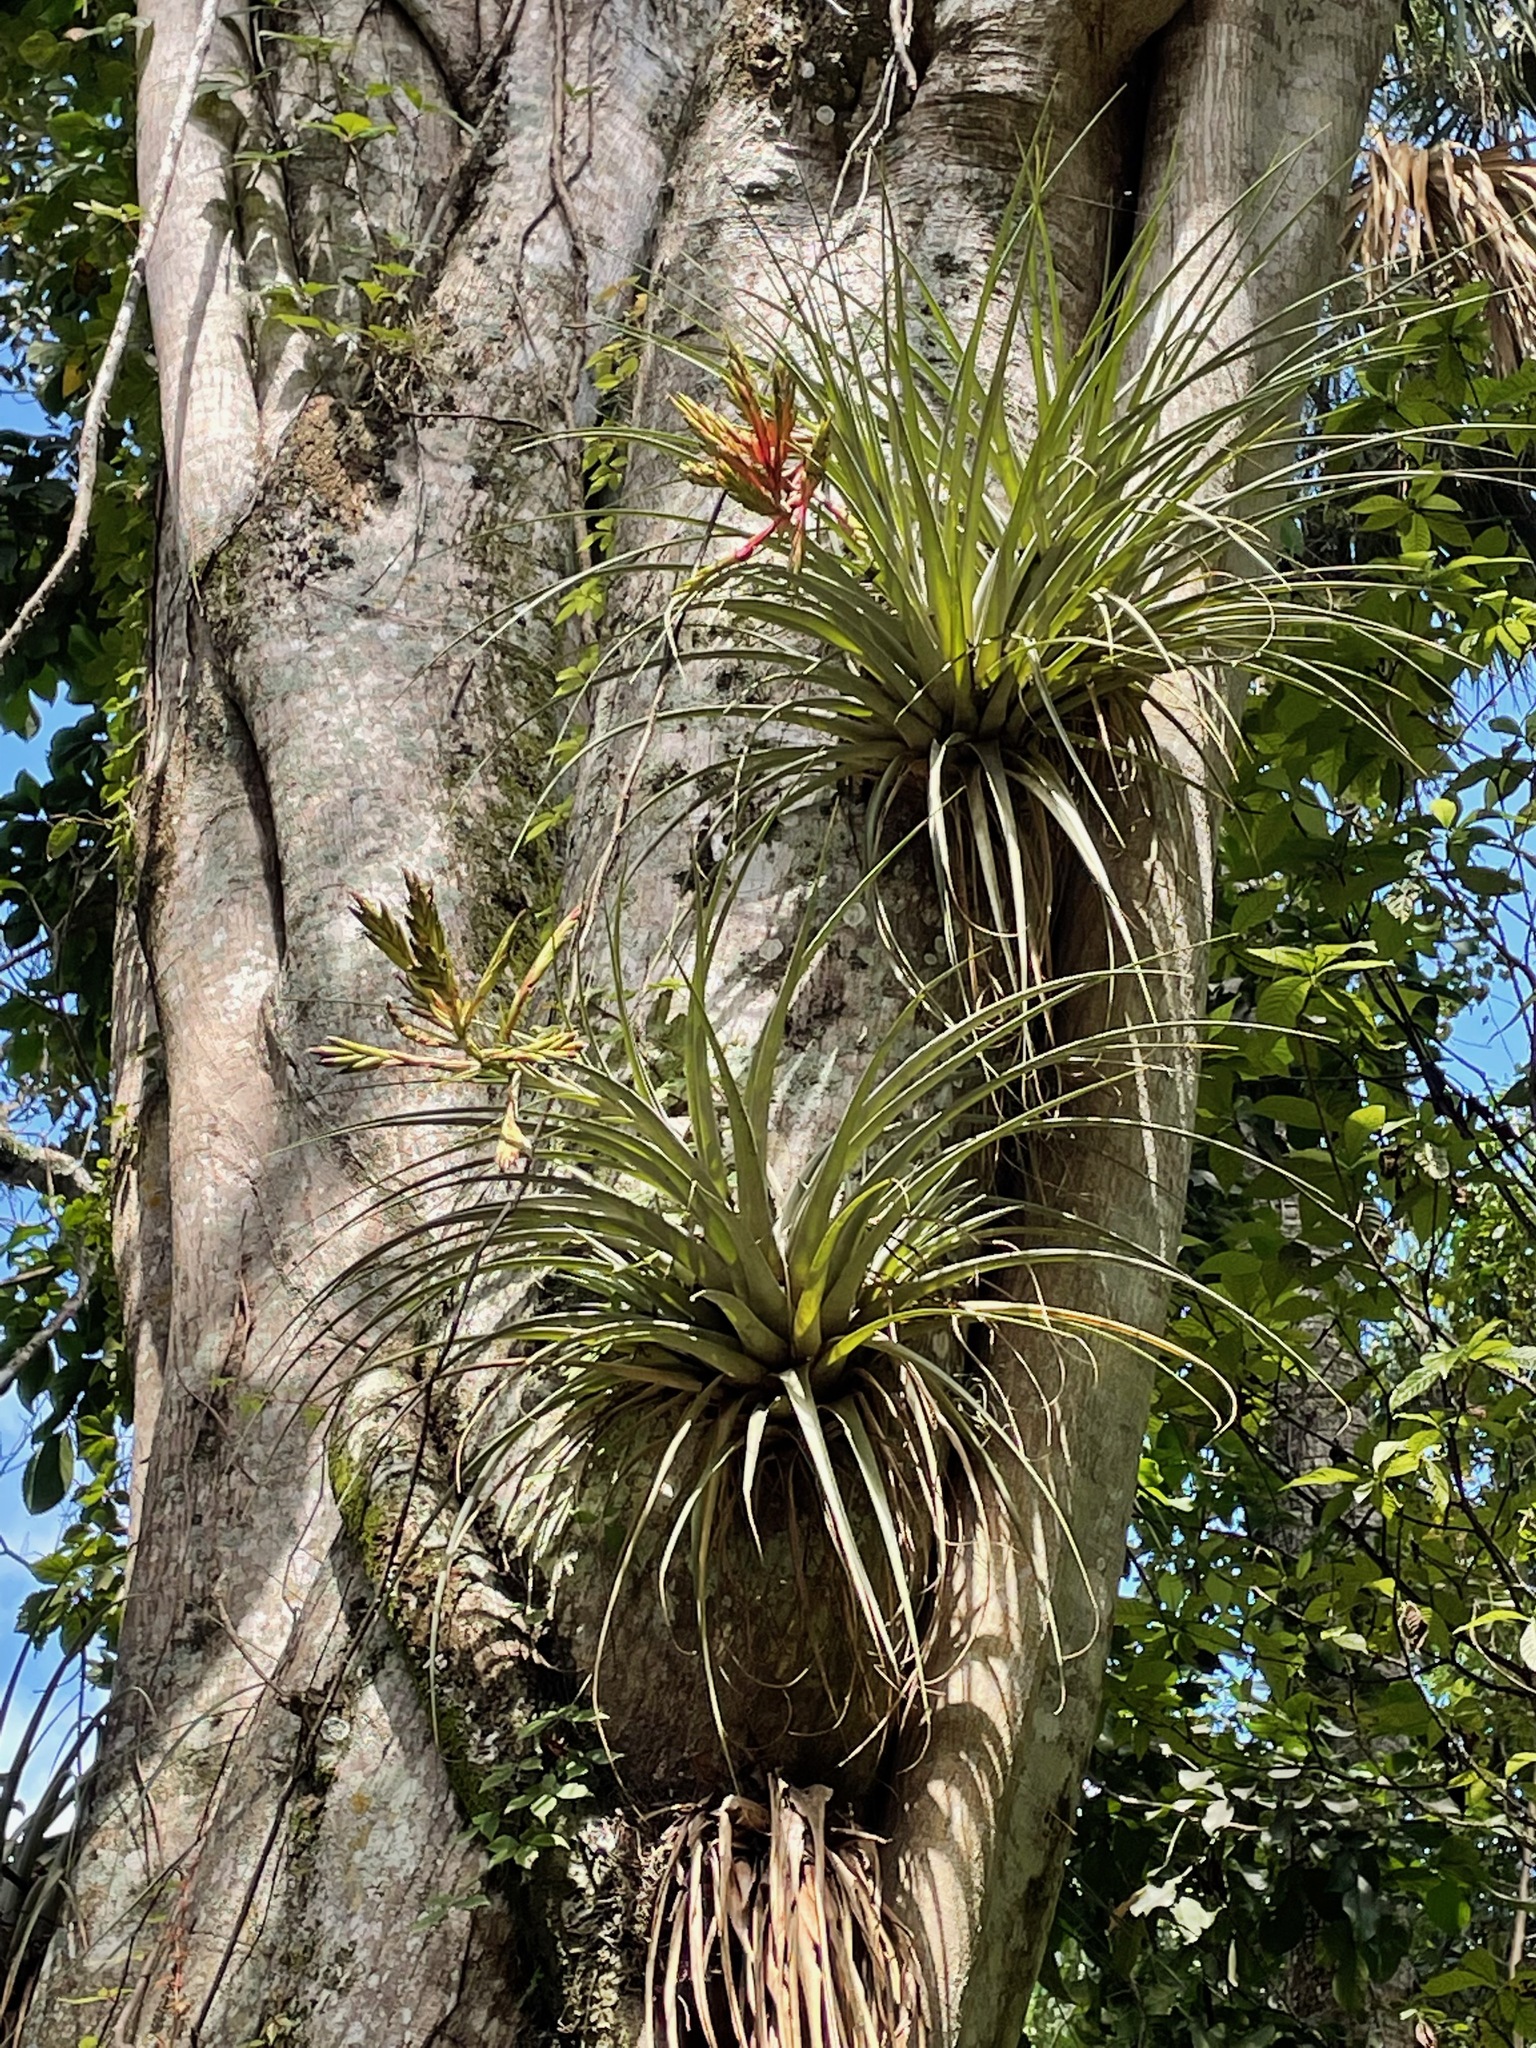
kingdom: Plantae
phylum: Tracheophyta
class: Liliopsida
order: Poales
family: Bromeliaceae
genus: Tillandsia
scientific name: Tillandsia fasciculata
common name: Giant airplant
